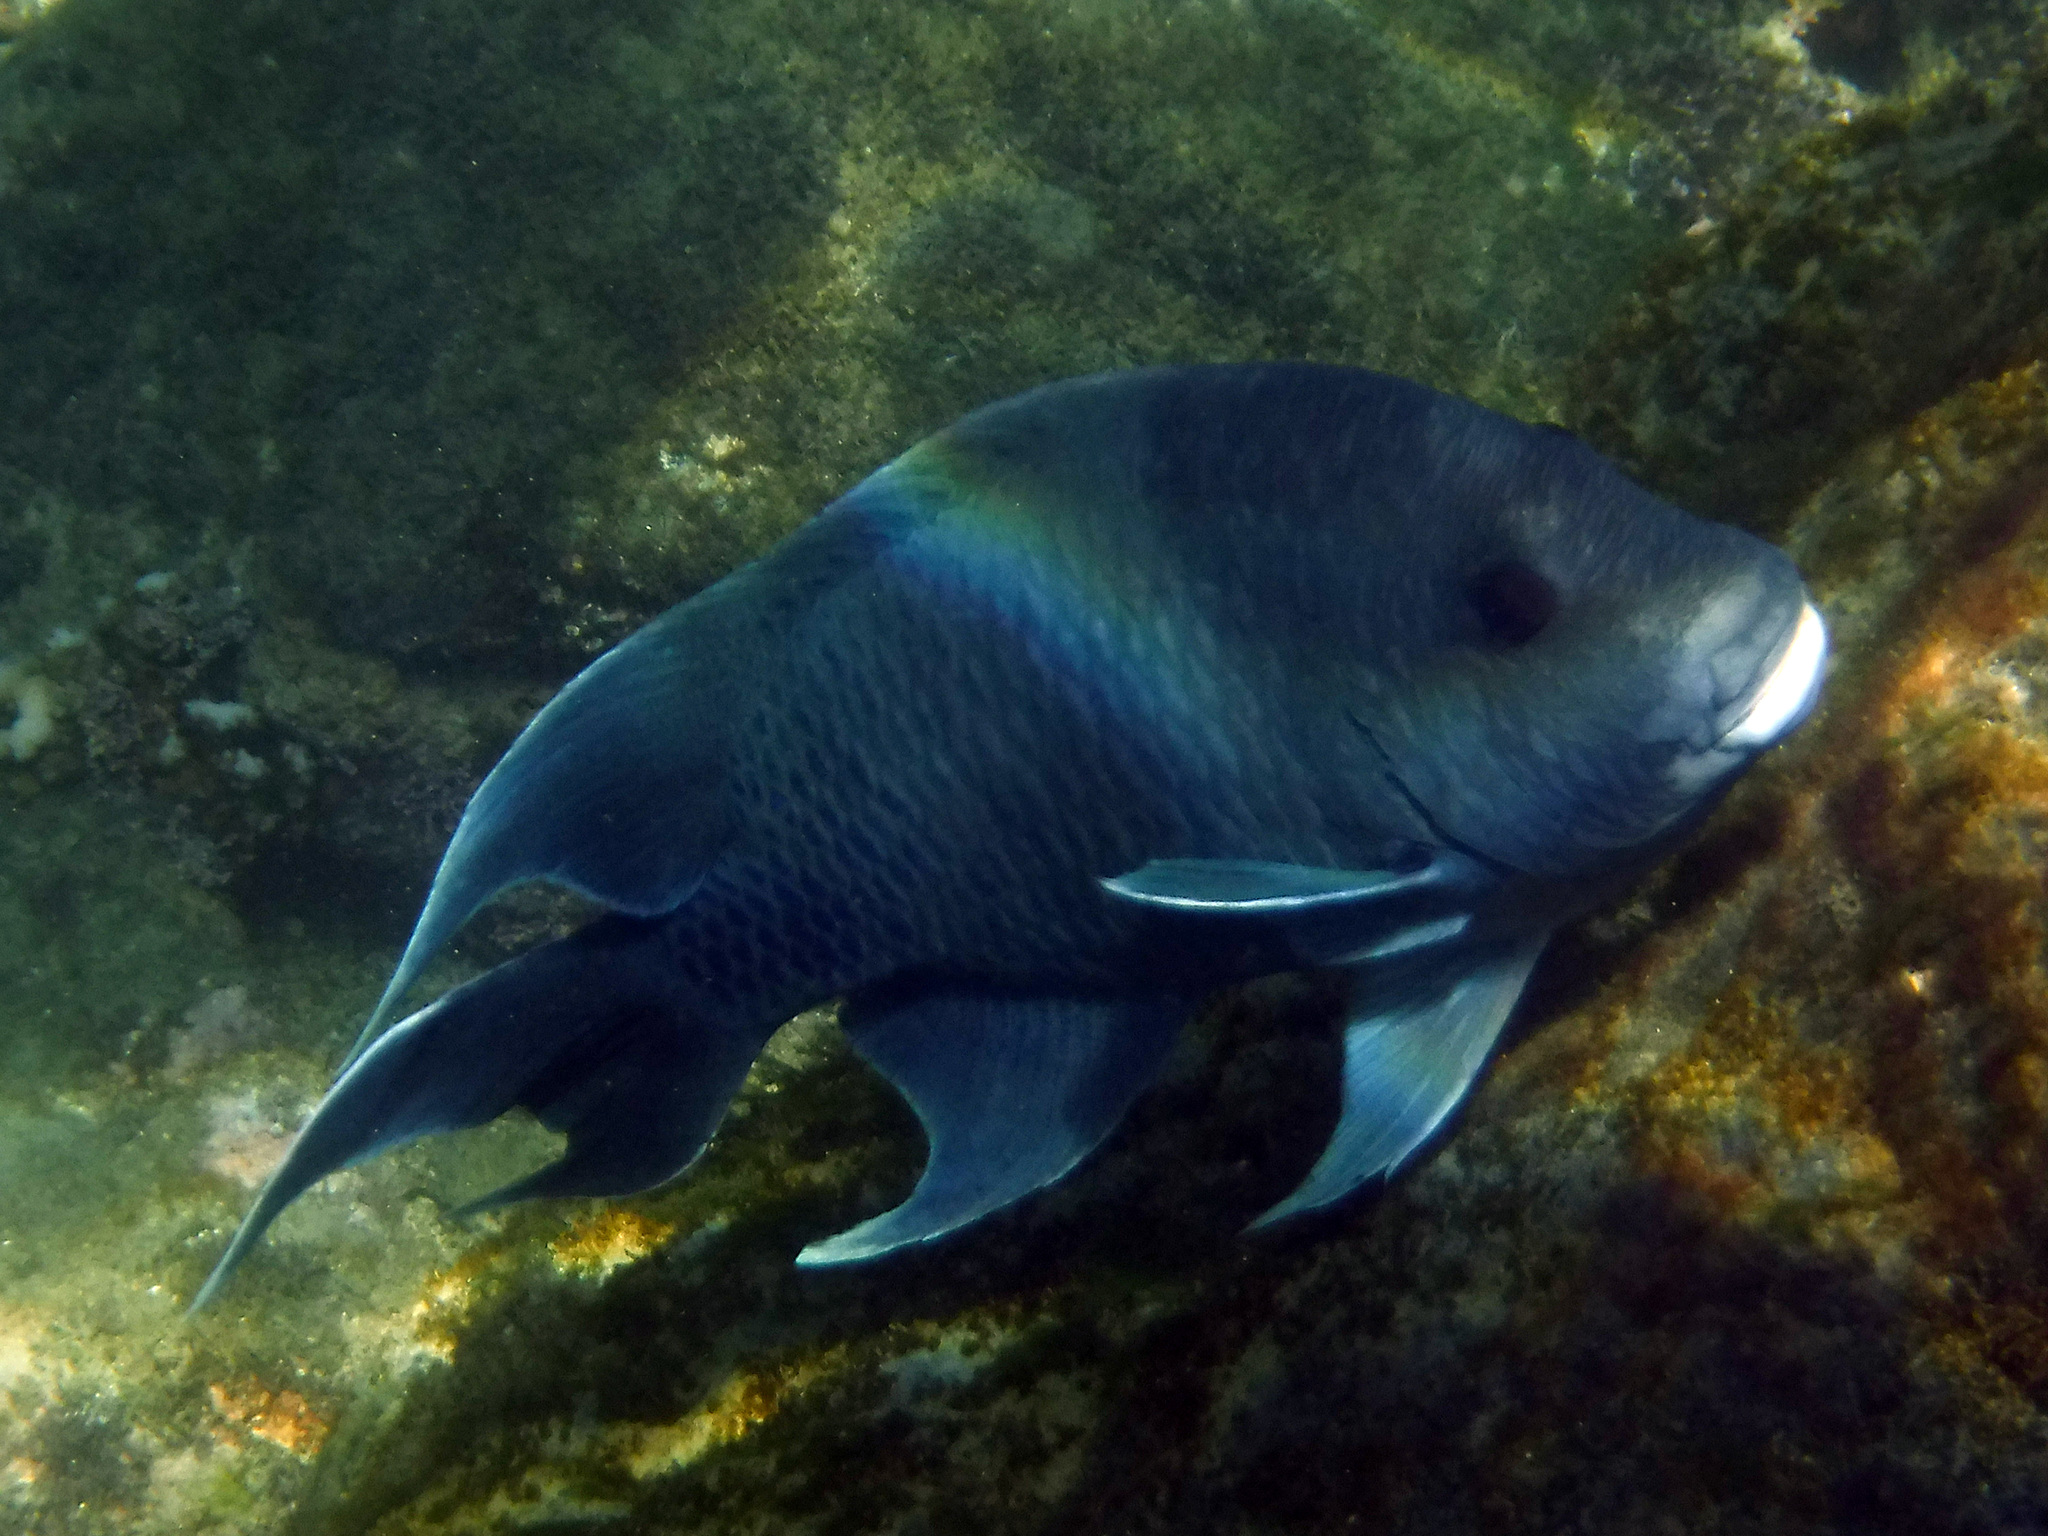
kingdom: Animalia
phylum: Chordata
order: Perciformes
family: Pomacentridae
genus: Microspathodon
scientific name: Microspathodon dorsalis
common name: Giant damselfish
